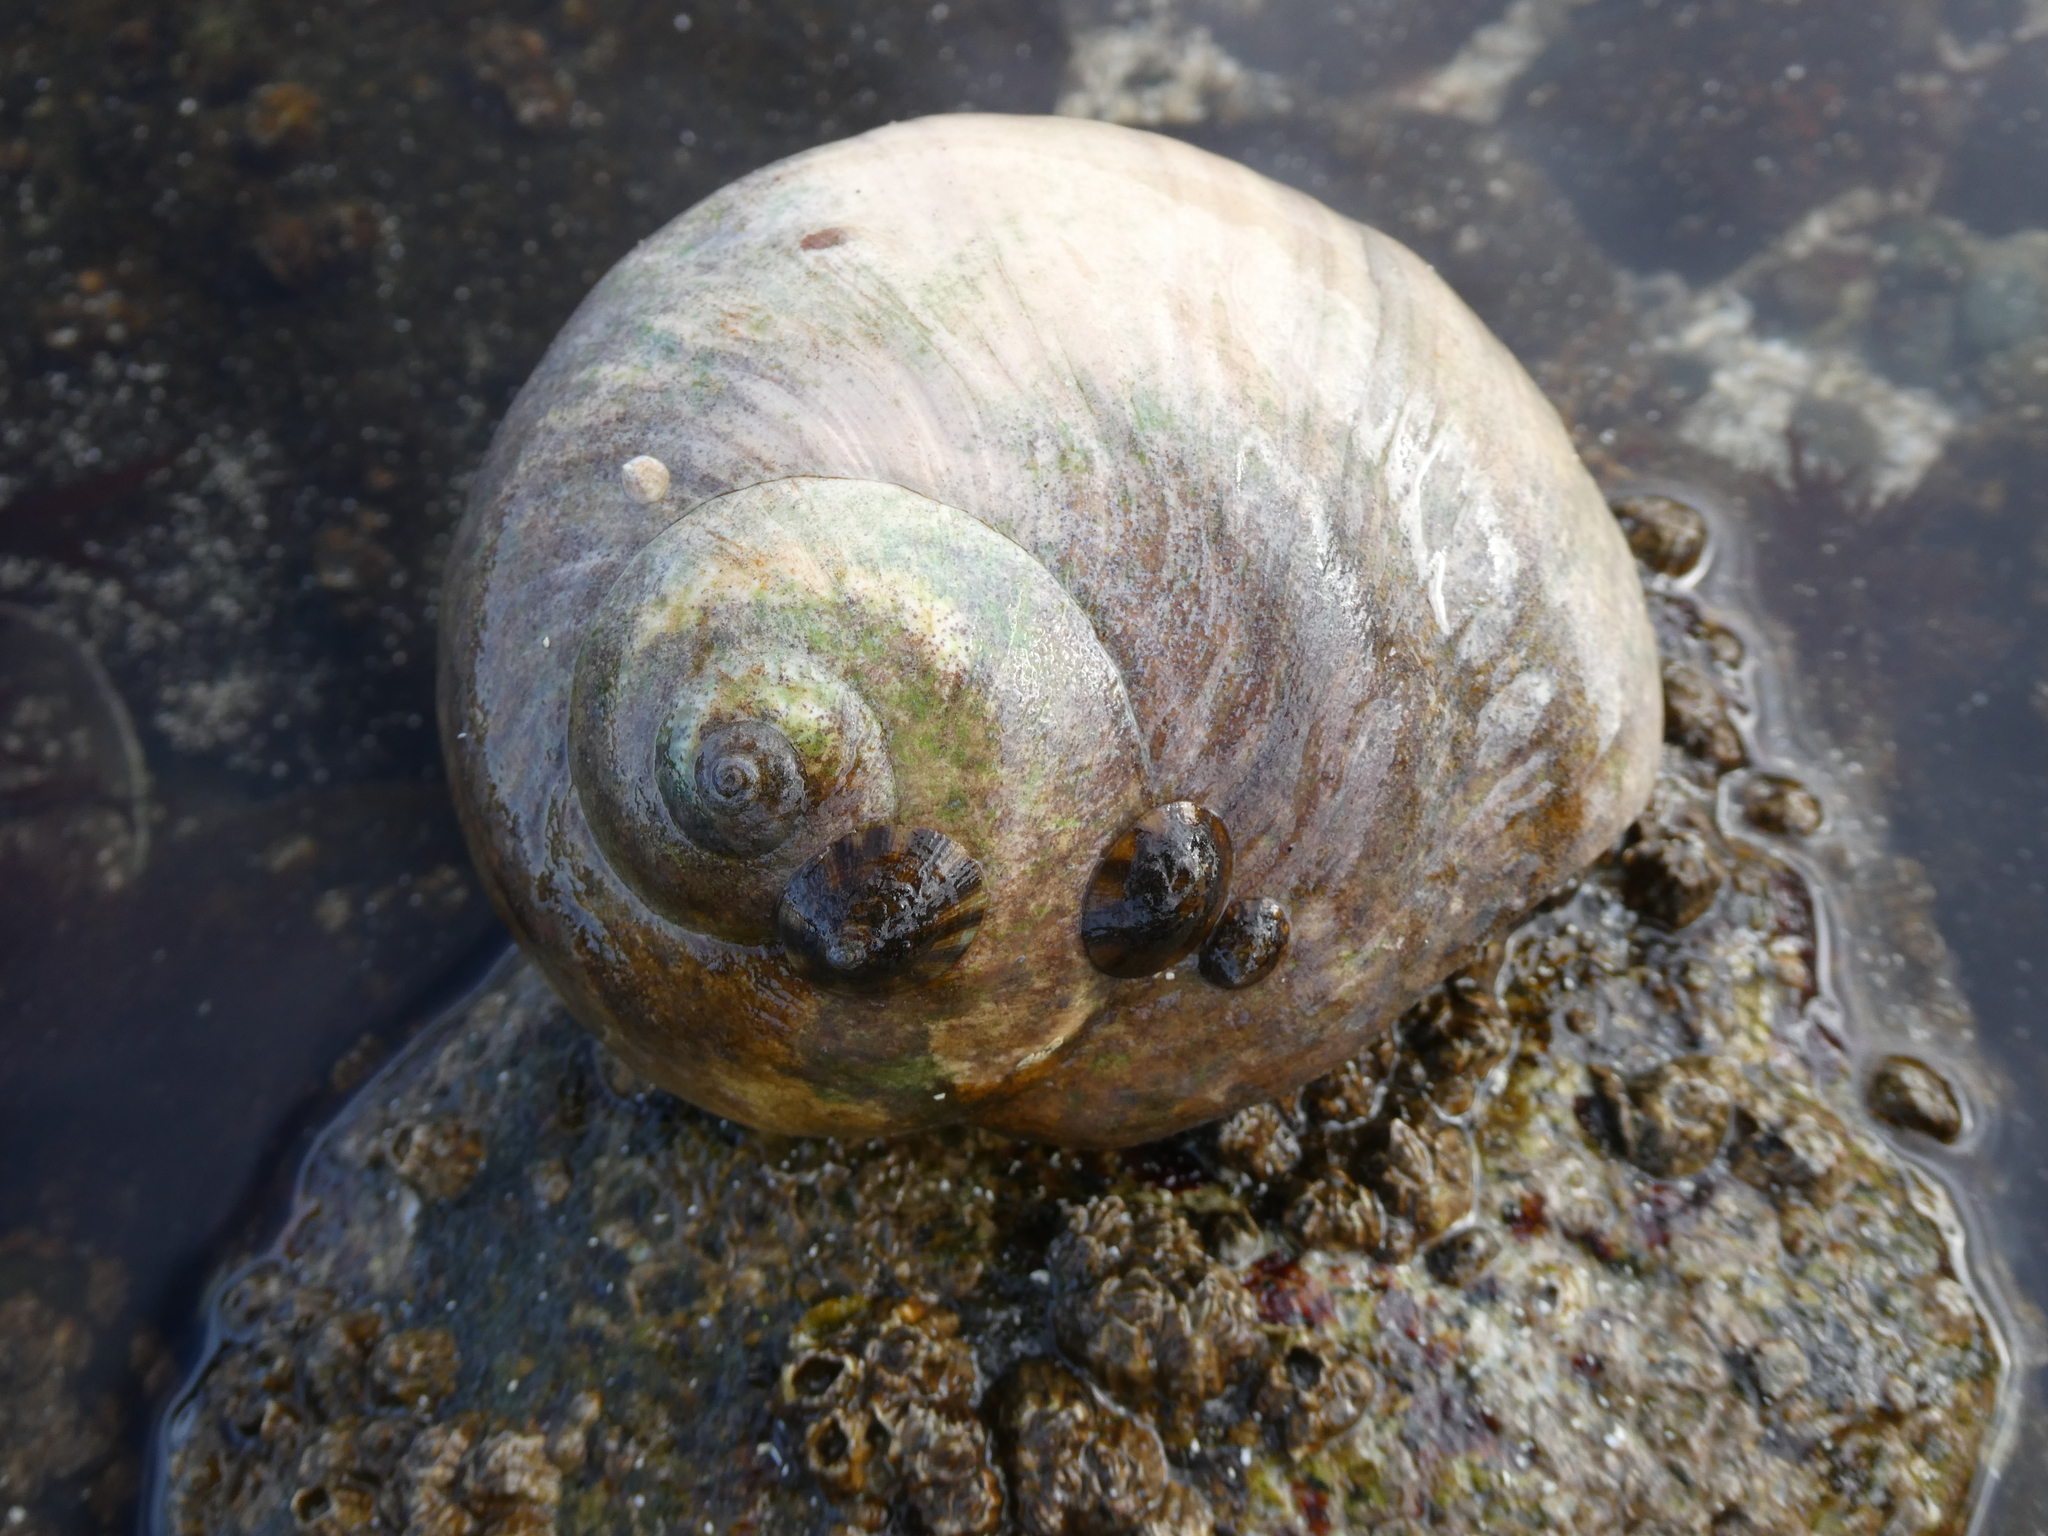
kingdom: Animalia
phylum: Mollusca
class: Gastropoda
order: Littorinimorpha
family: Naticidae
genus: Neverita
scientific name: Neverita lewisii
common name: Lewis' moonsnail
